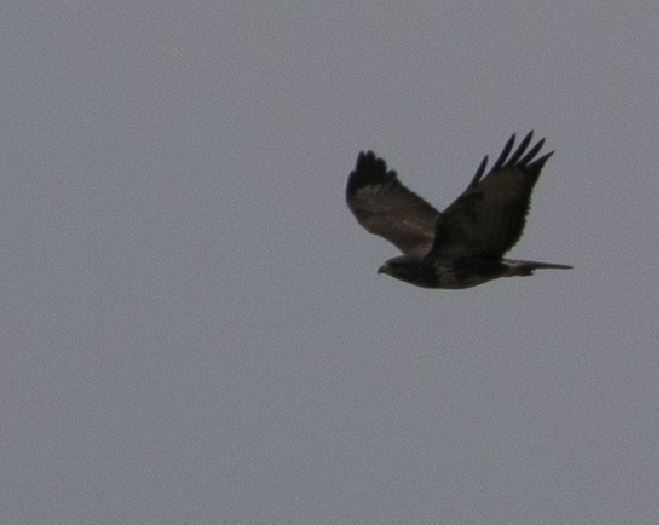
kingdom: Animalia
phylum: Chordata
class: Aves
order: Accipitriformes
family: Accipitridae
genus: Buteo
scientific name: Buteo buteo
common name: Common buzzard
